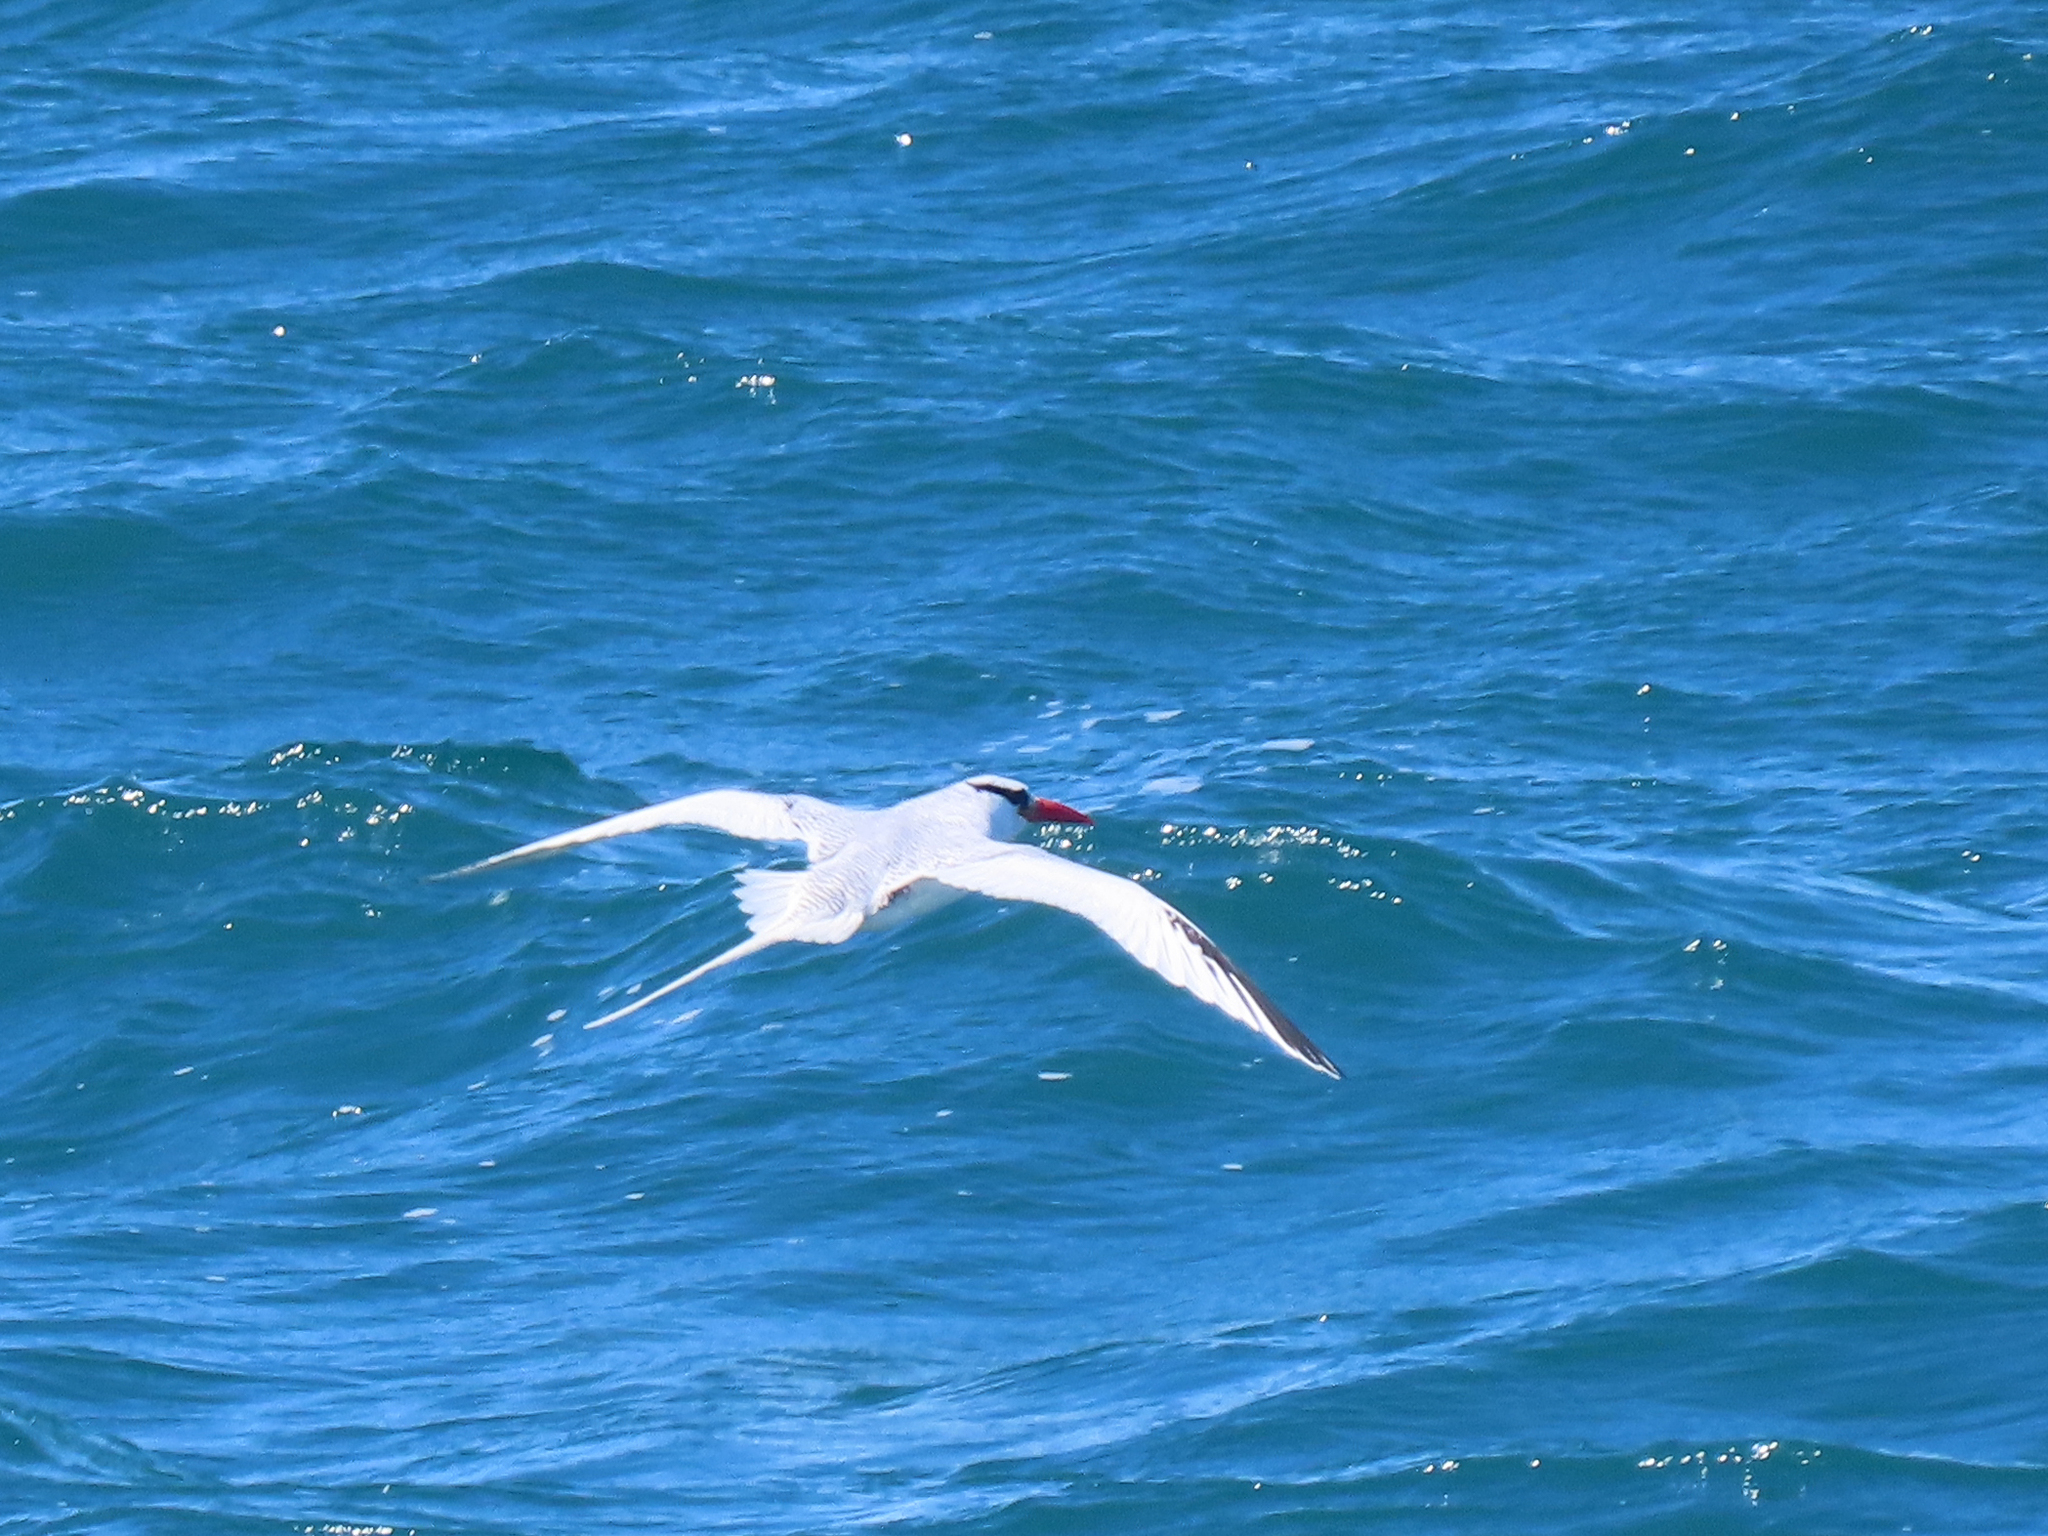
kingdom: Animalia
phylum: Chordata
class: Aves
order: Phaethontiformes
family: Phaethontidae
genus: Phaethon
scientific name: Phaethon aethereus
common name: Red-billed tropicbird
